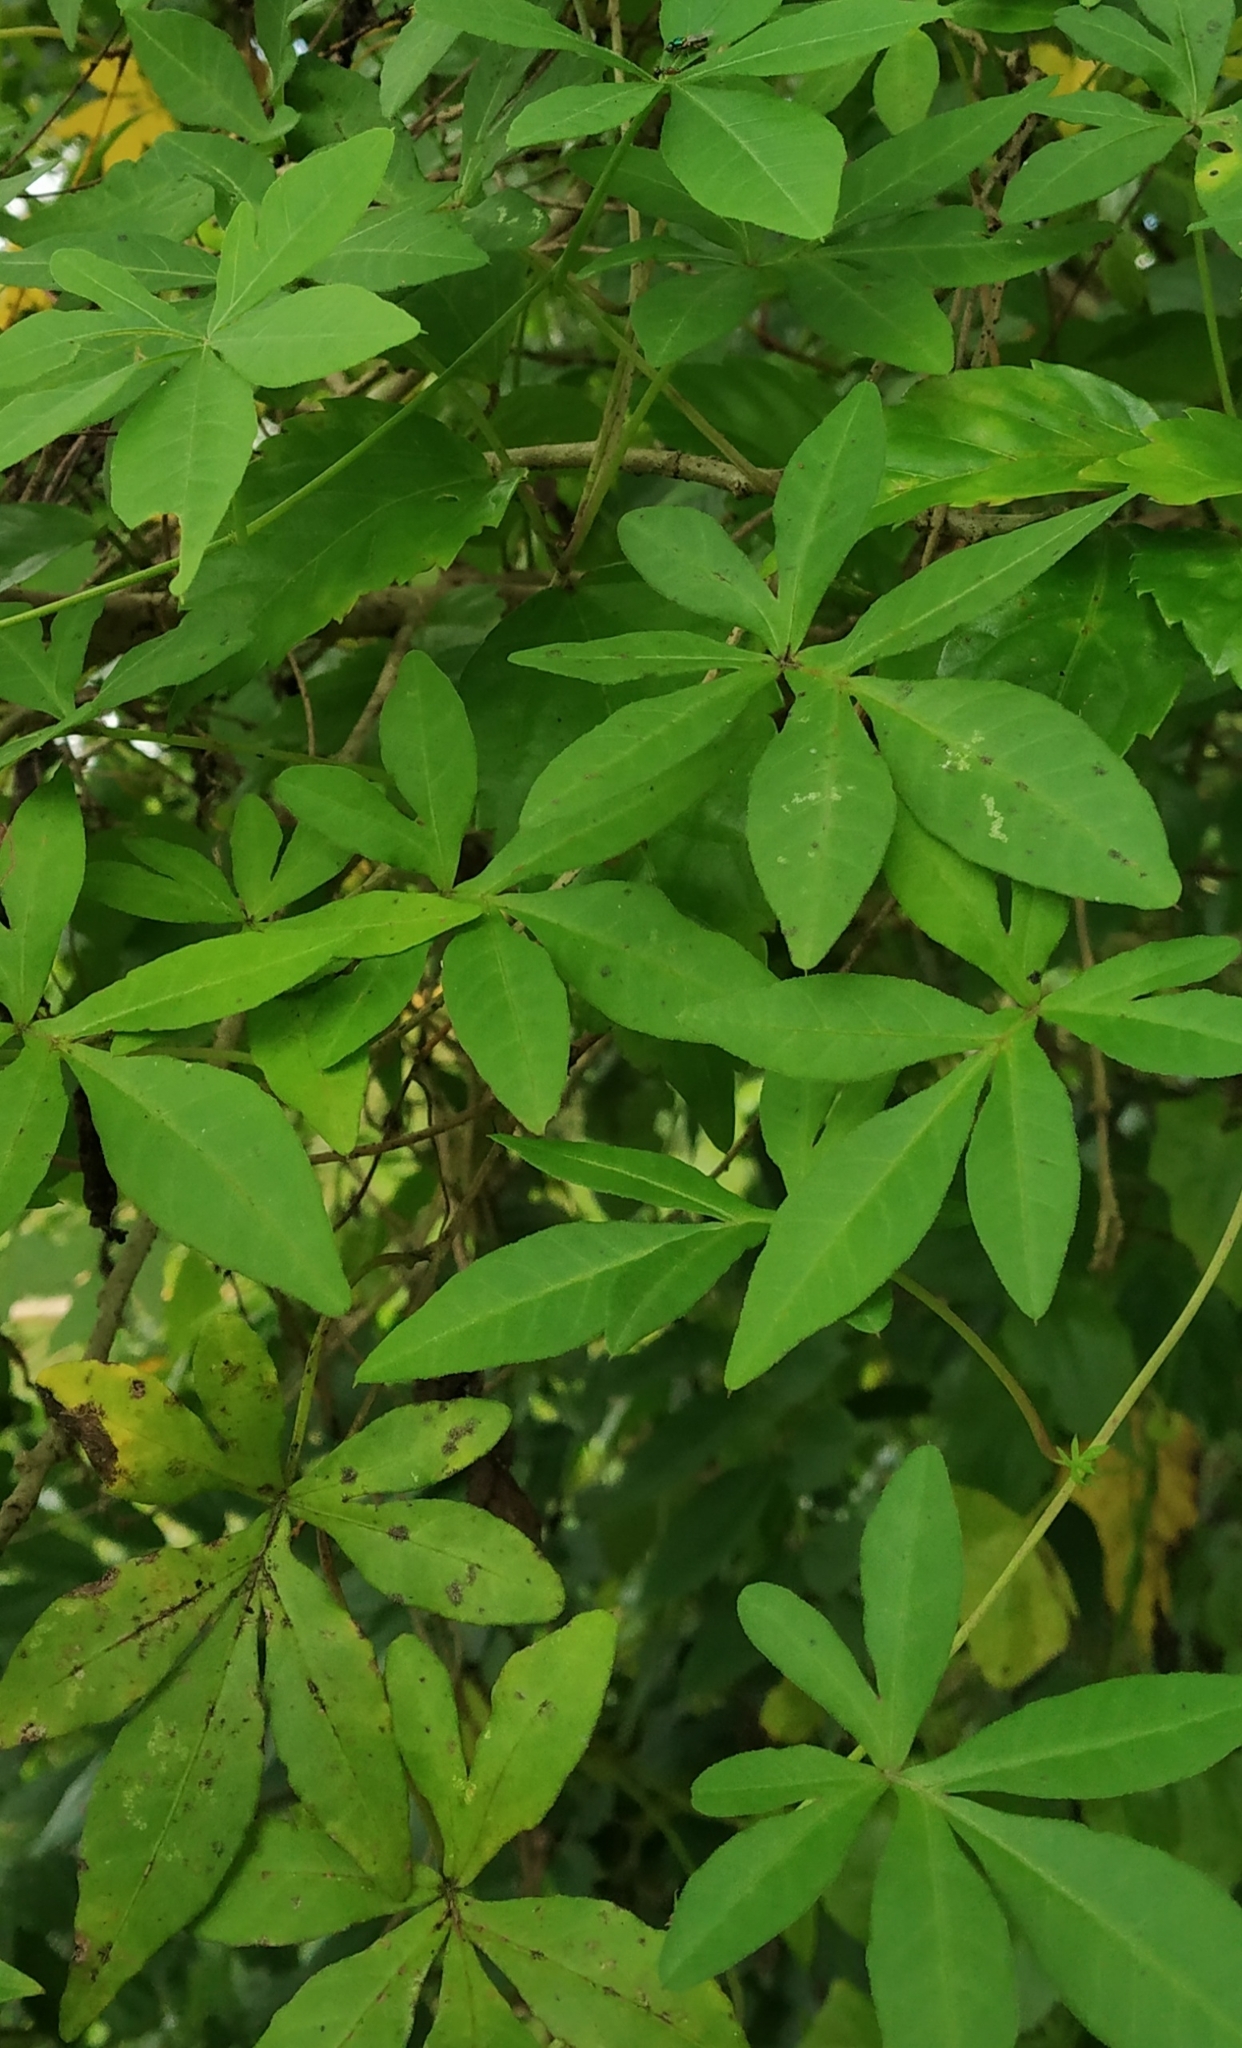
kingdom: Plantae
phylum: Tracheophyta
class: Magnoliopsida
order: Solanales
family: Convolvulaceae
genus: Ipomoea
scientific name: Ipomoea cairica
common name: Mile a minute vine
